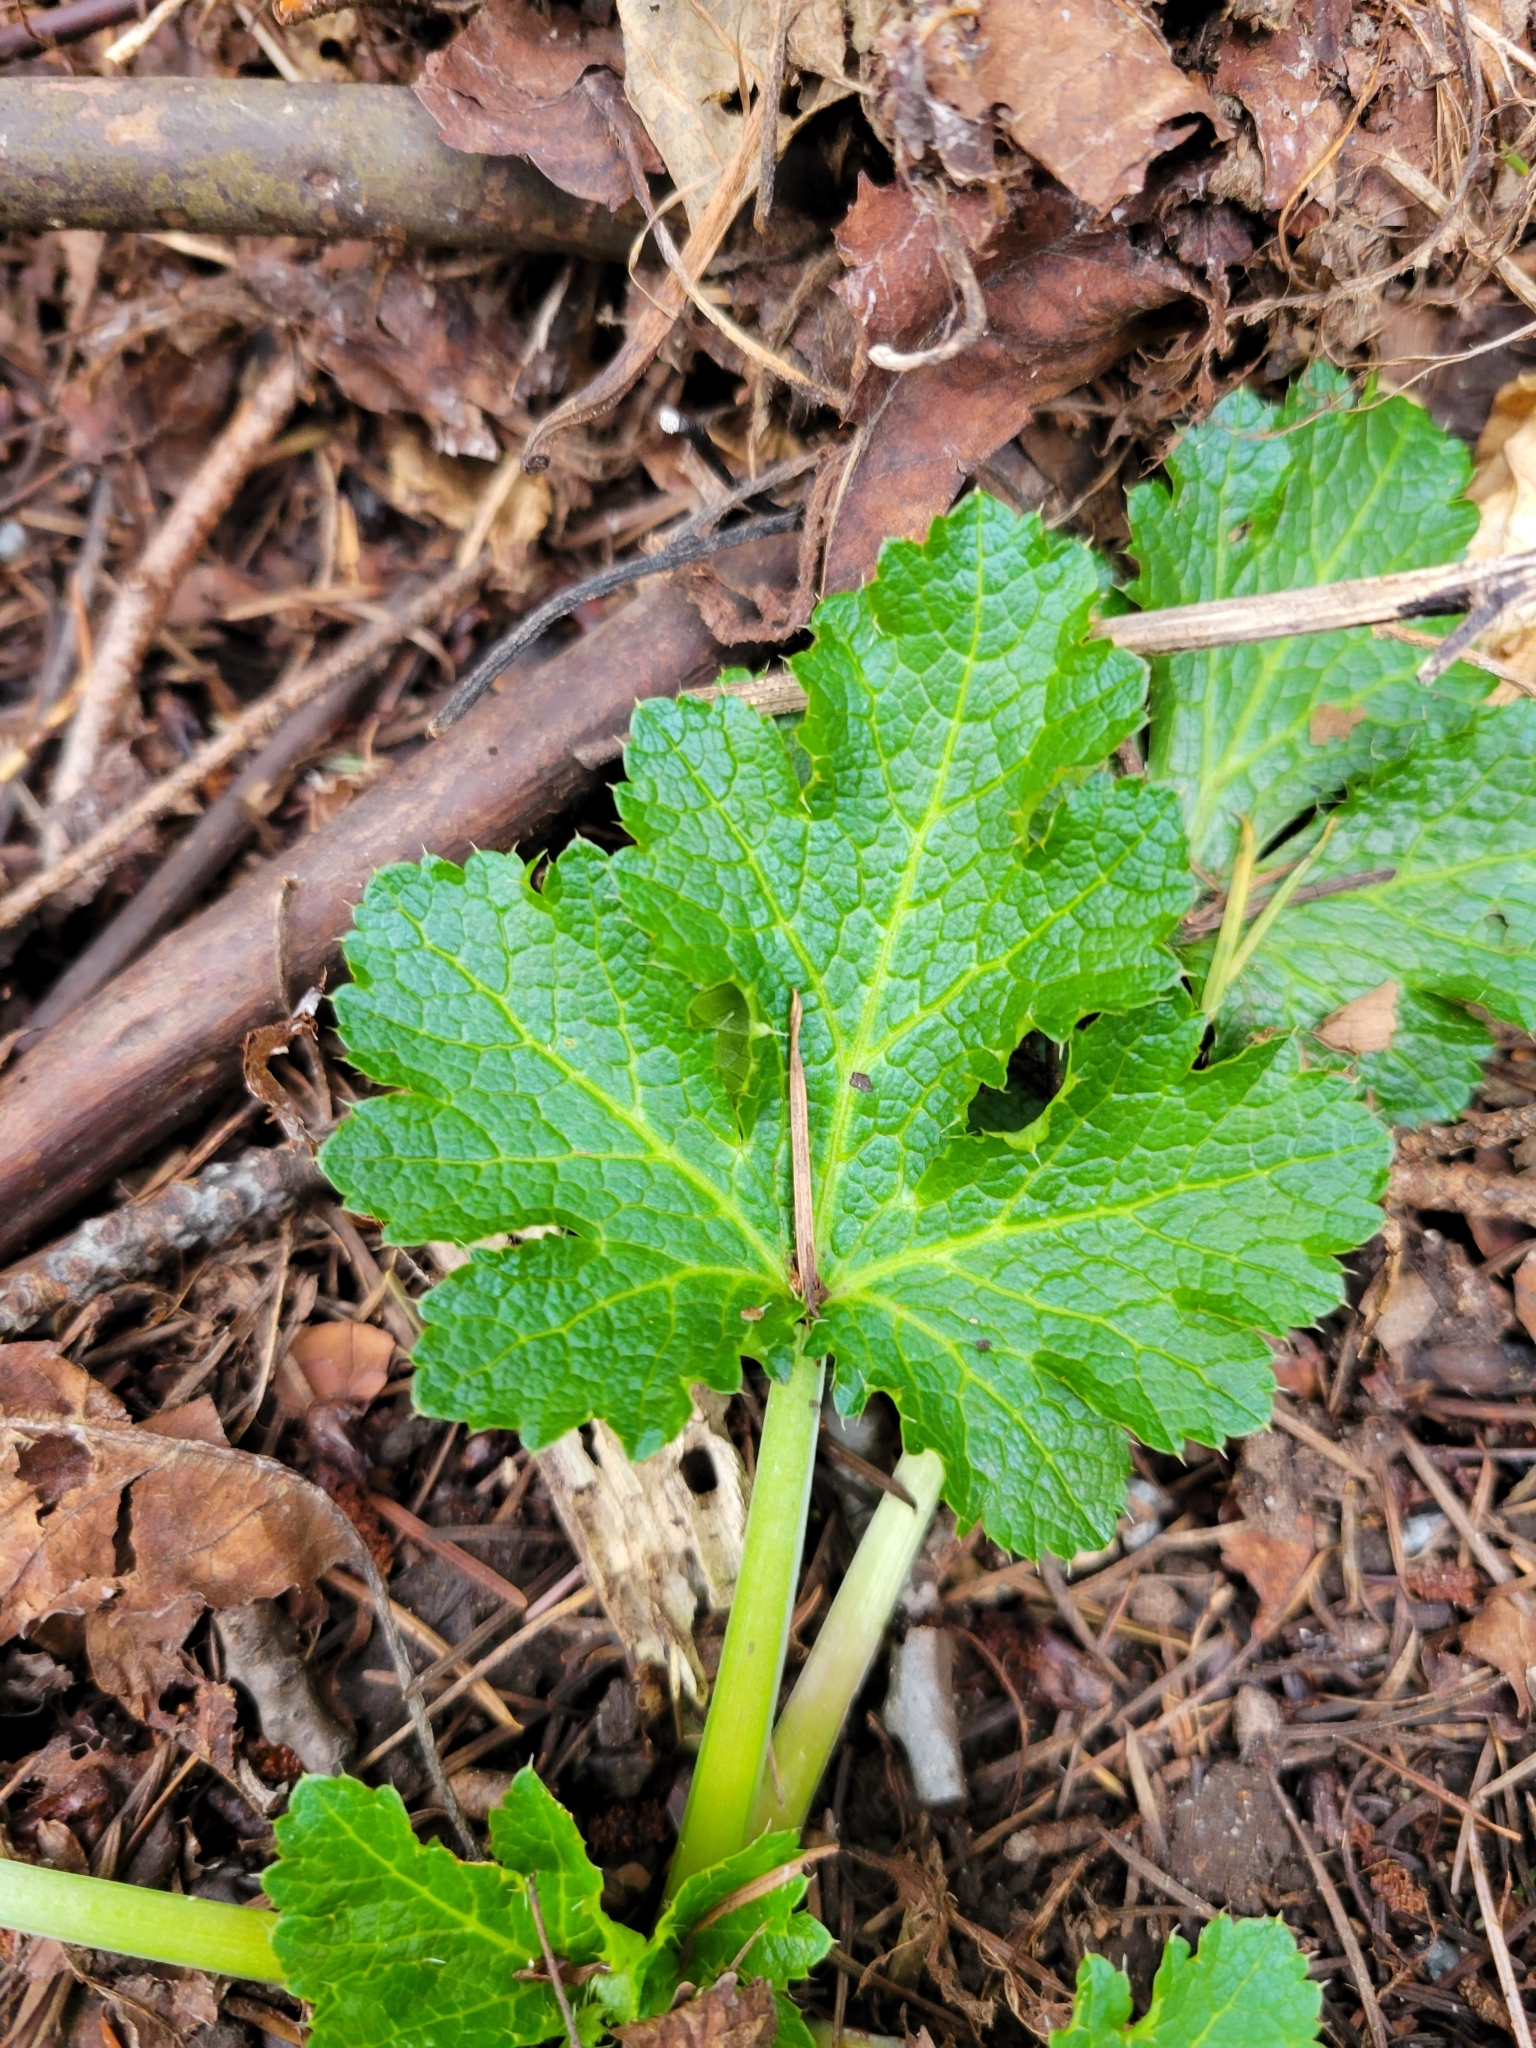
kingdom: Plantae
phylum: Tracheophyta
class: Magnoliopsida
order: Apiales
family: Apiaceae
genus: Sanicula
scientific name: Sanicula crassicaulis
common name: Western snakeroot
